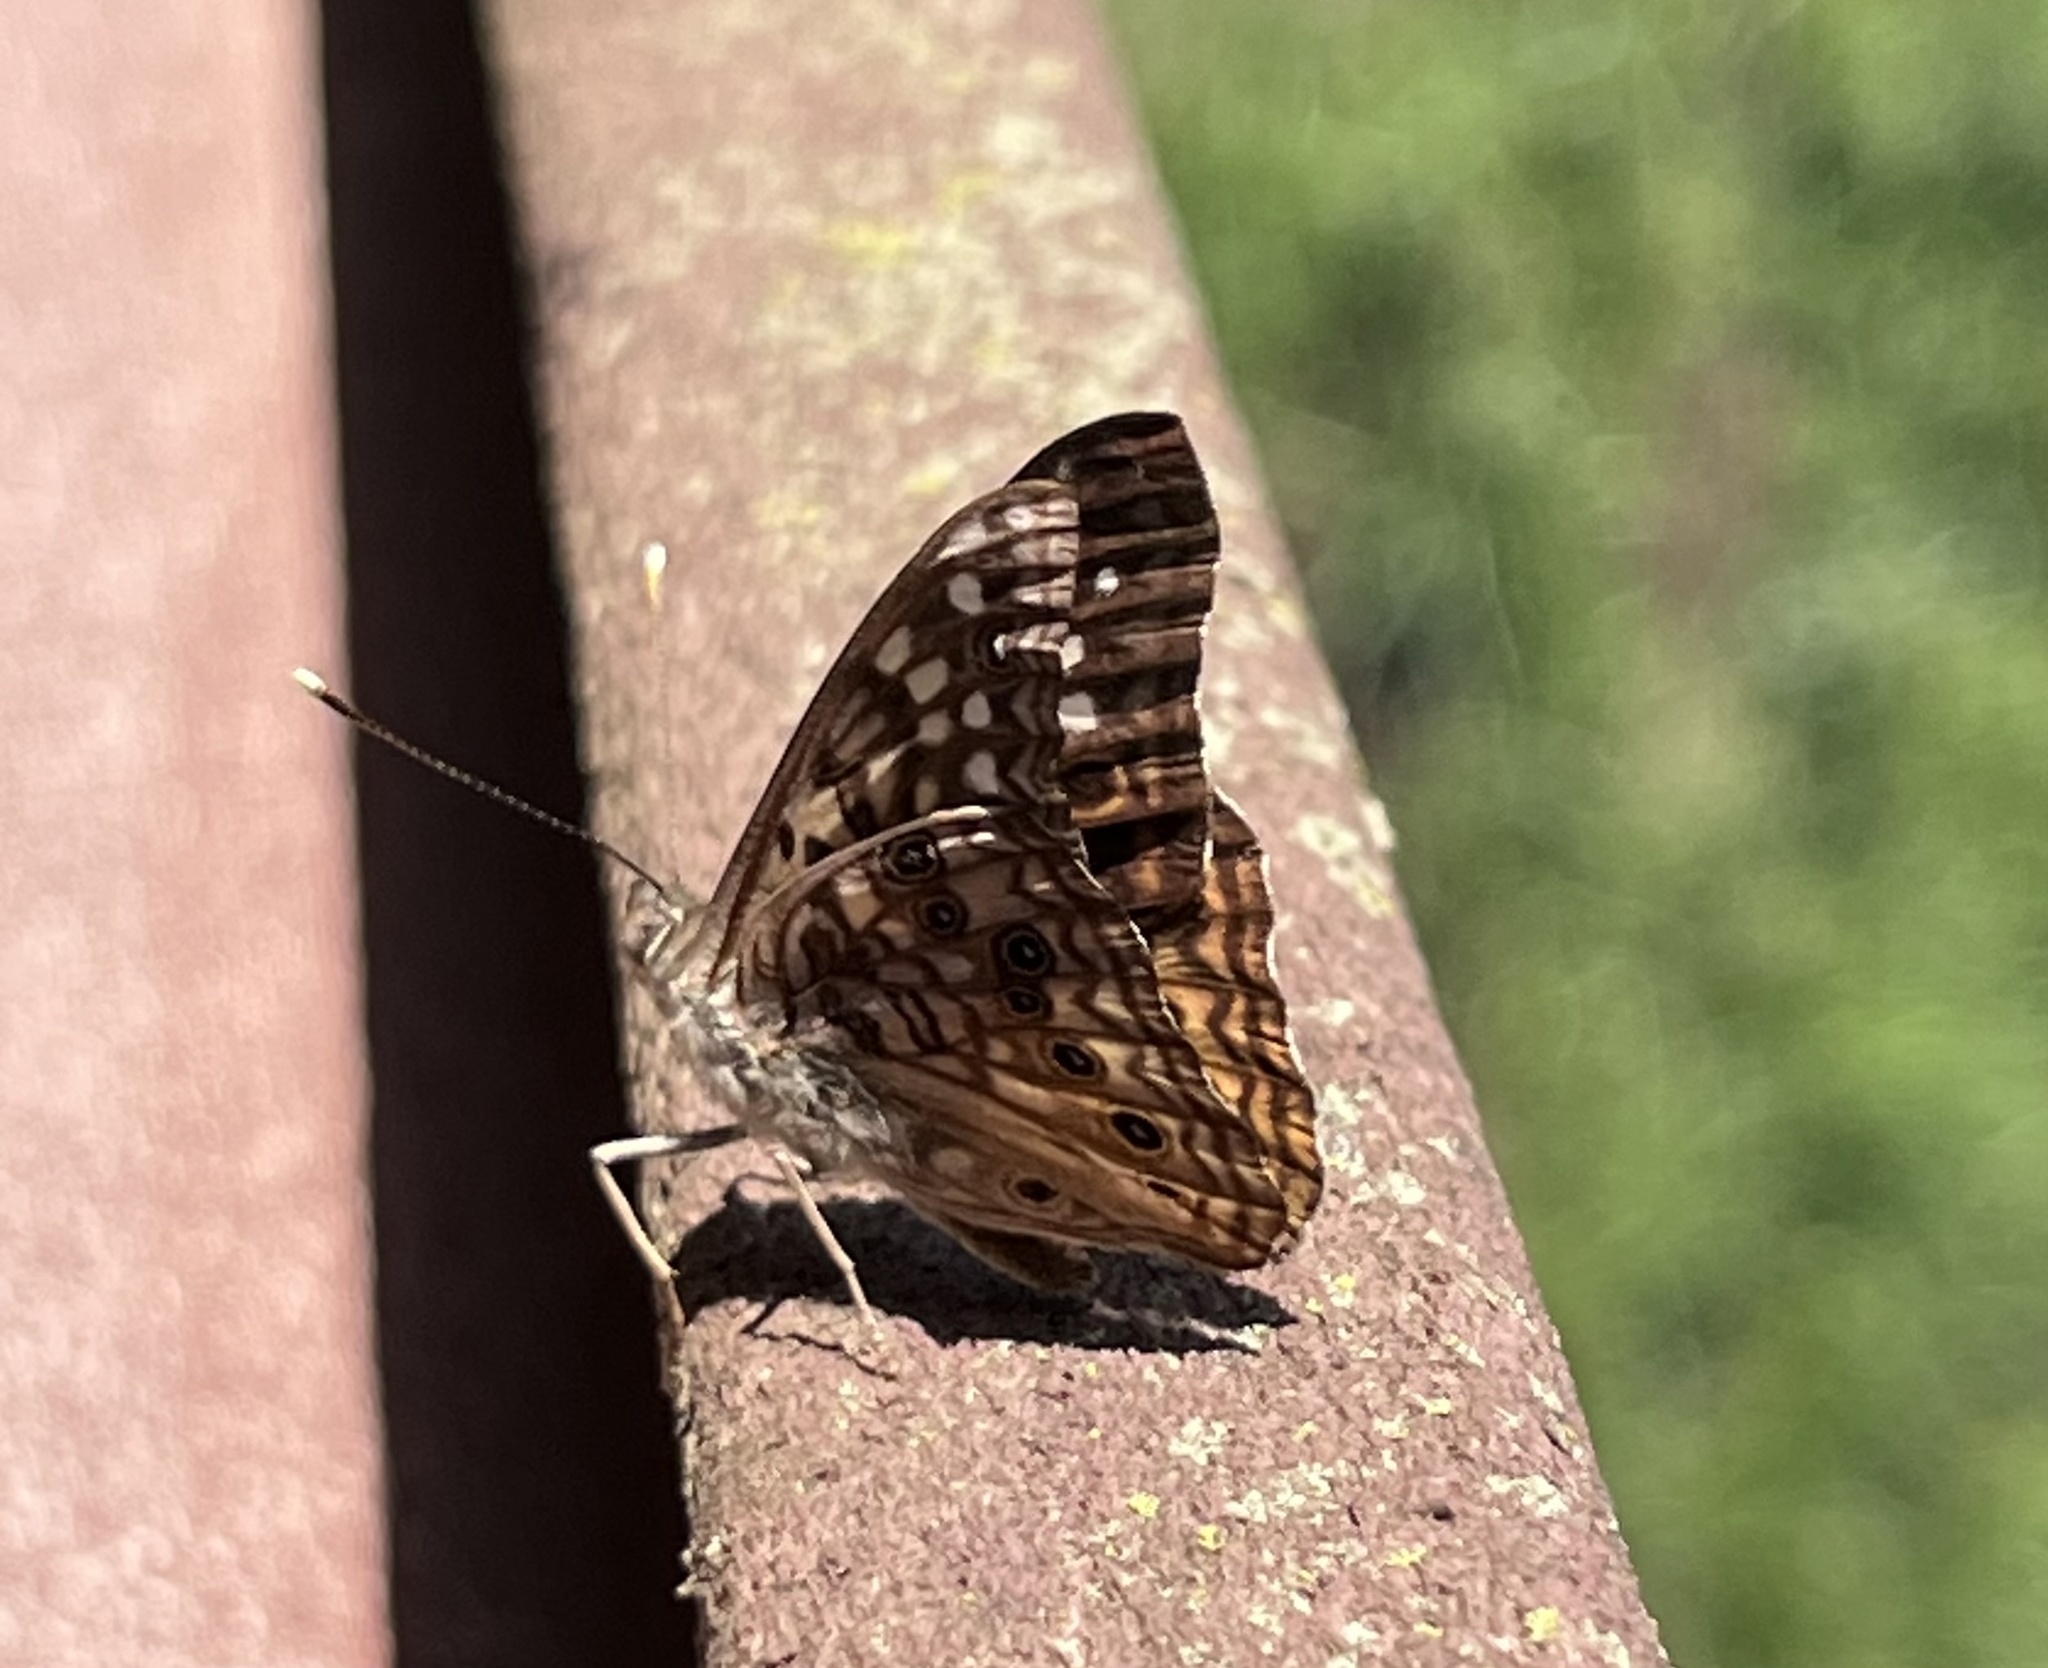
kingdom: Animalia
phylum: Arthropoda
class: Insecta
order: Lepidoptera
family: Nymphalidae
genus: Asterocampa
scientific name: Asterocampa celtis
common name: Hackberry emperor
